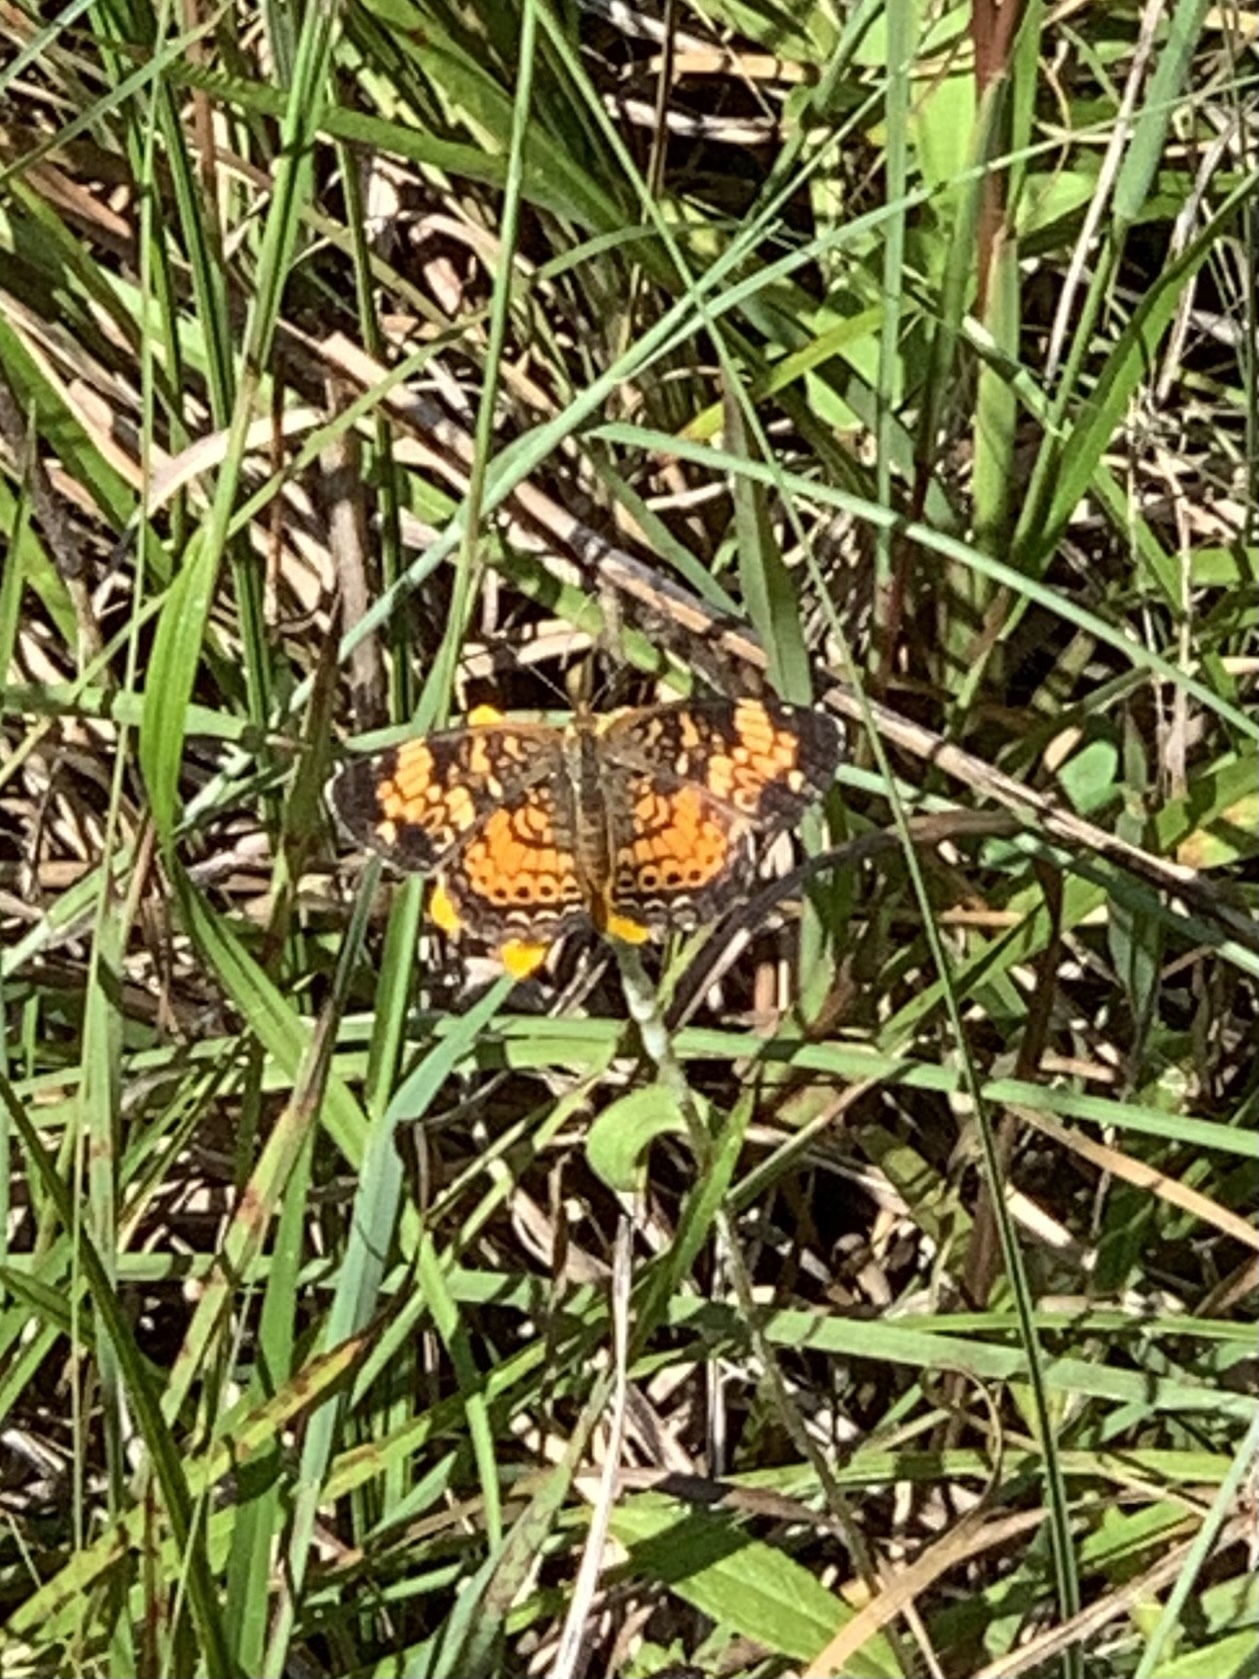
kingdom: Animalia
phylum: Arthropoda
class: Insecta
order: Lepidoptera
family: Nymphalidae
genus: Phyciodes
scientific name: Phyciodes tharos
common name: Pearl crescent
